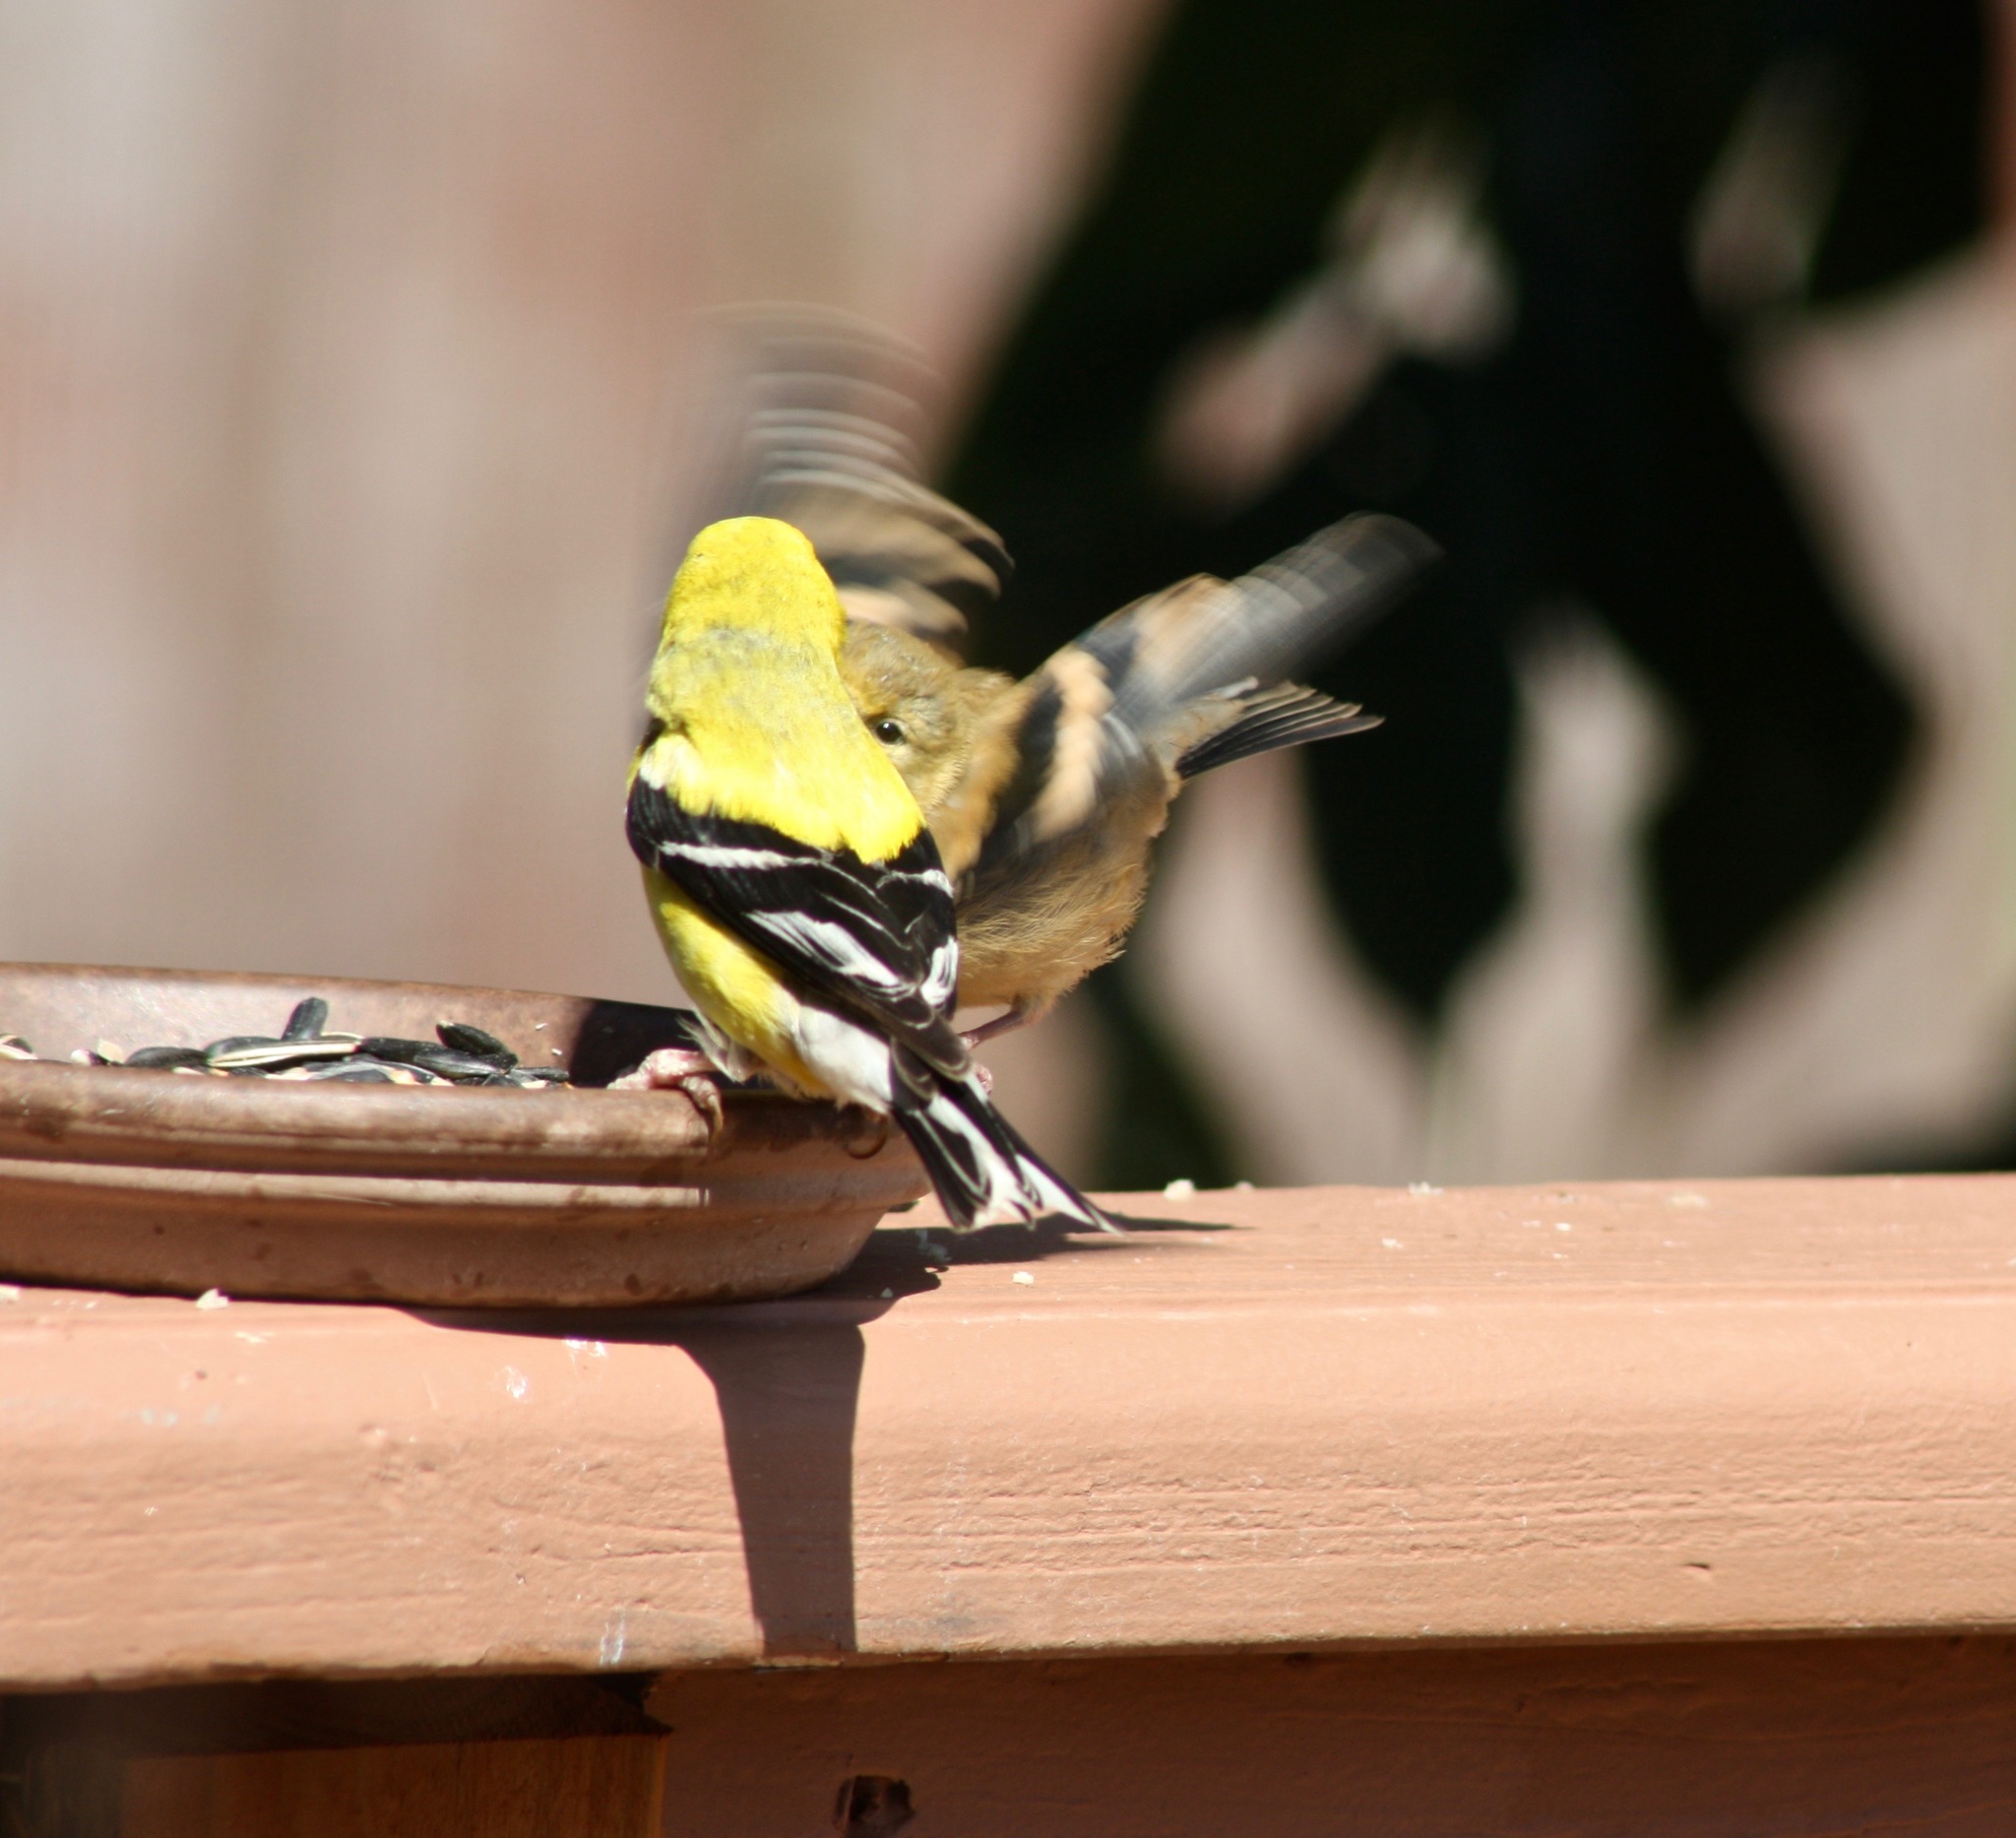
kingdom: Animalia
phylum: Chordata
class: Aves
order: Passeriformes
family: Fringillidae
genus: Spinus
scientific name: Spinus tristis
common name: American goldfinch
